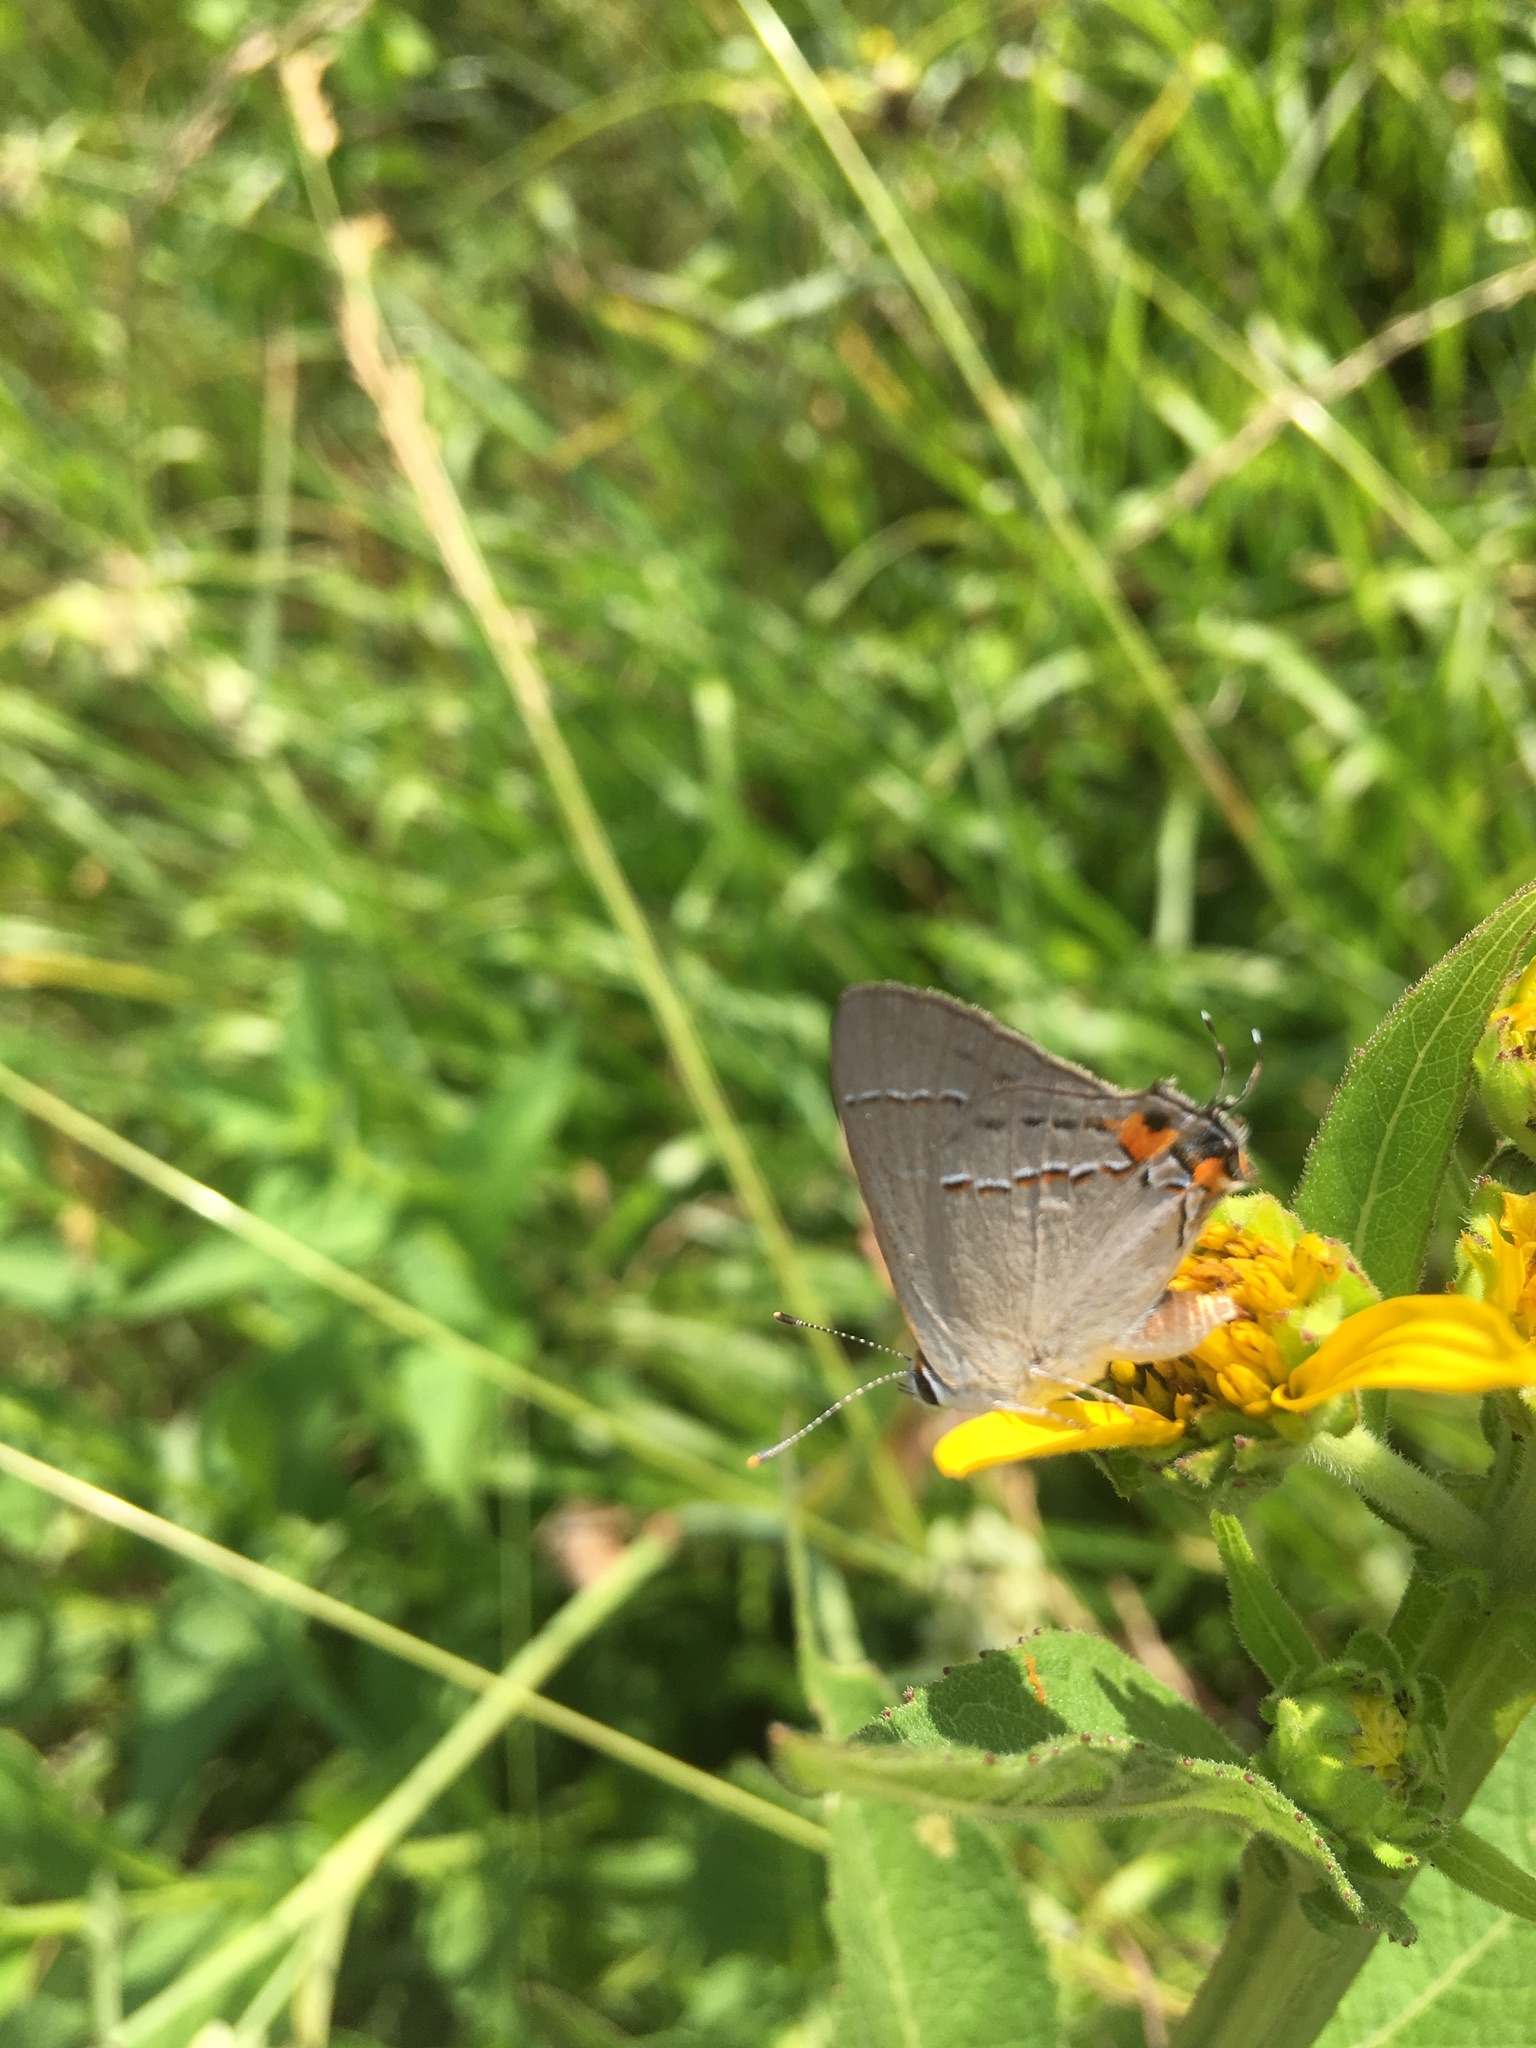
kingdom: Animalia
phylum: Arthropoda
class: Insecta
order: Lepidoptera
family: Lycaenidae
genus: Strymon
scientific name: Strymon melinus
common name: Gray hairstreak
